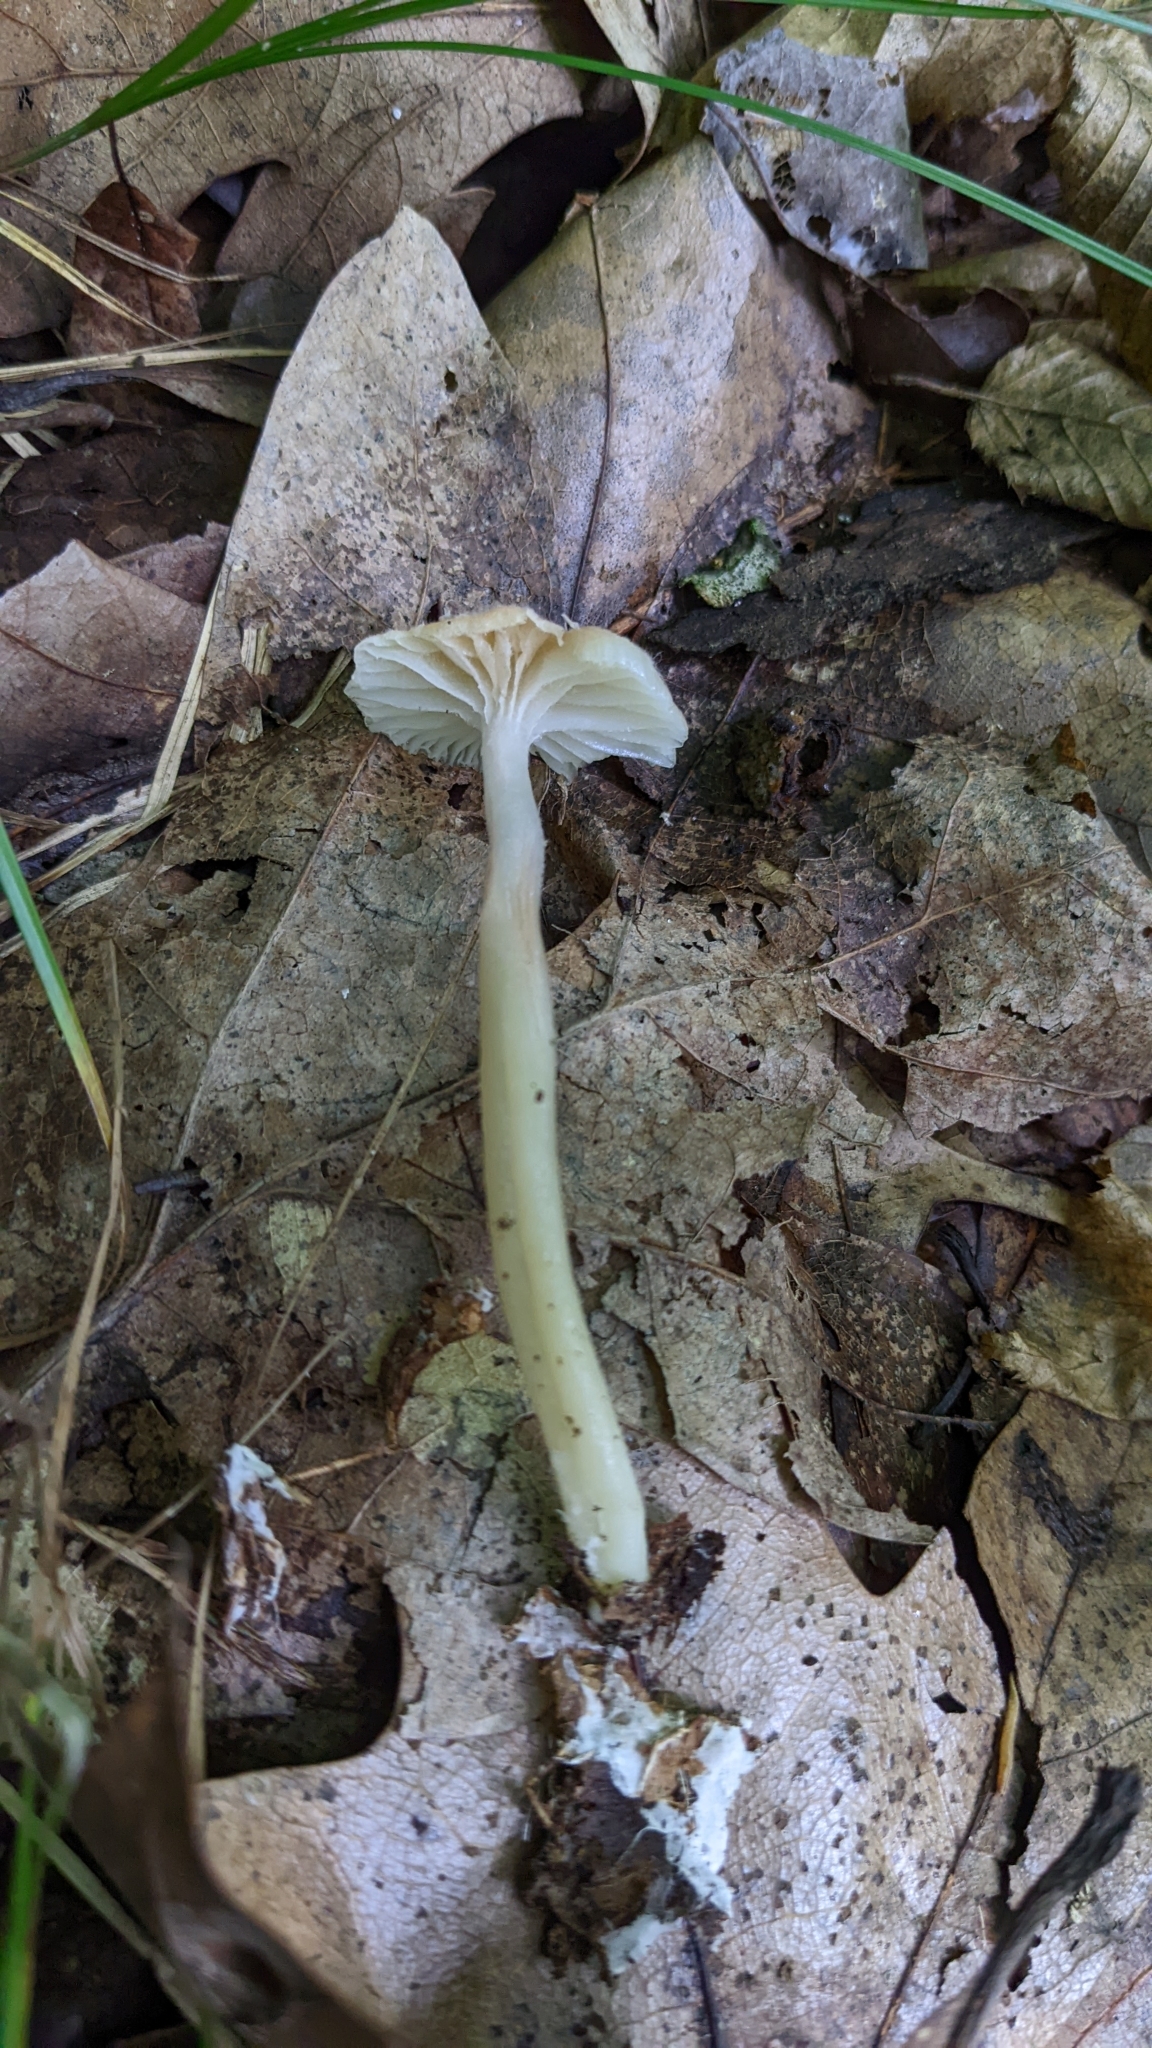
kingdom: Fungi
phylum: Basidiomycota
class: Agaricomycetes
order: Agaricales
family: Hygrophoraceae
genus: Gliophorus
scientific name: Gliophorus laetus
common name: Heath waxcap
